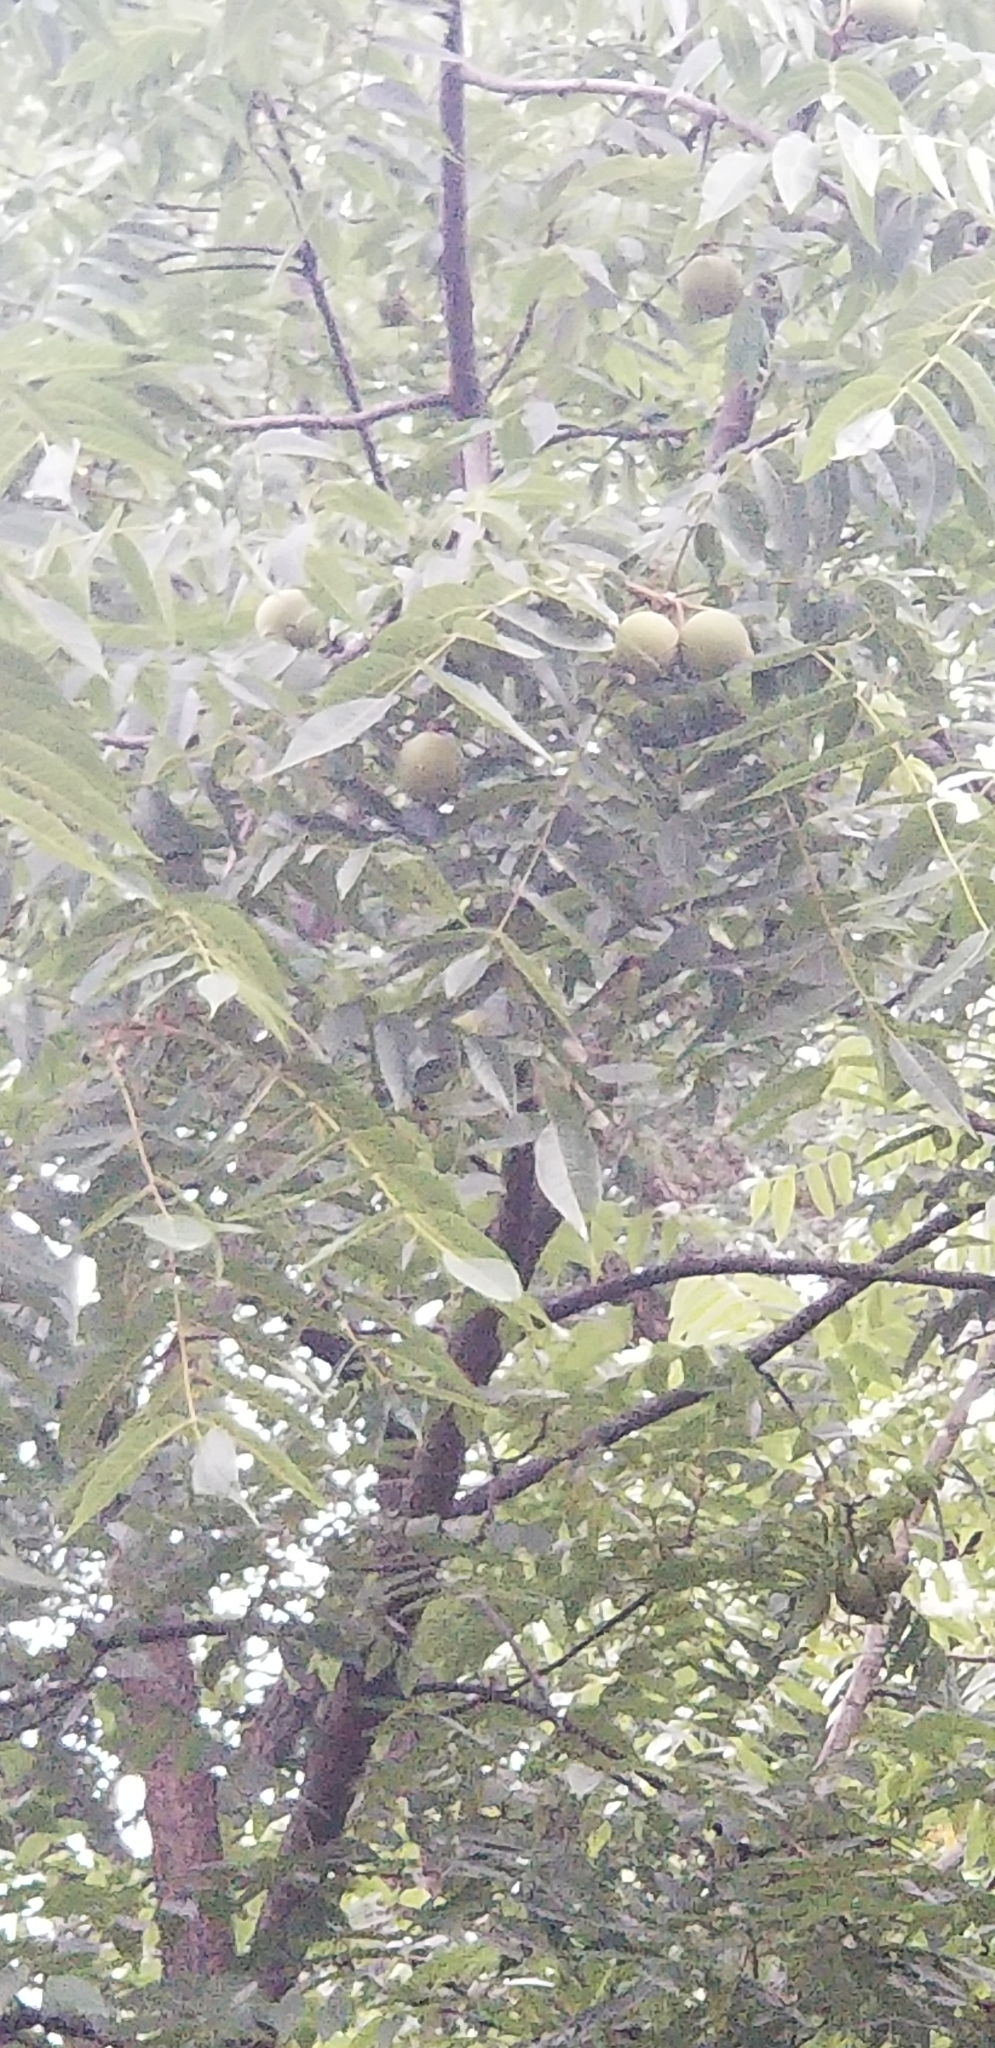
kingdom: Plantae
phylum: Tracheophyta
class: Magnoliopsida
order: Fagales
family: Juglandaceae
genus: Juglans
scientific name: Juglans nigra
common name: Black walnut
